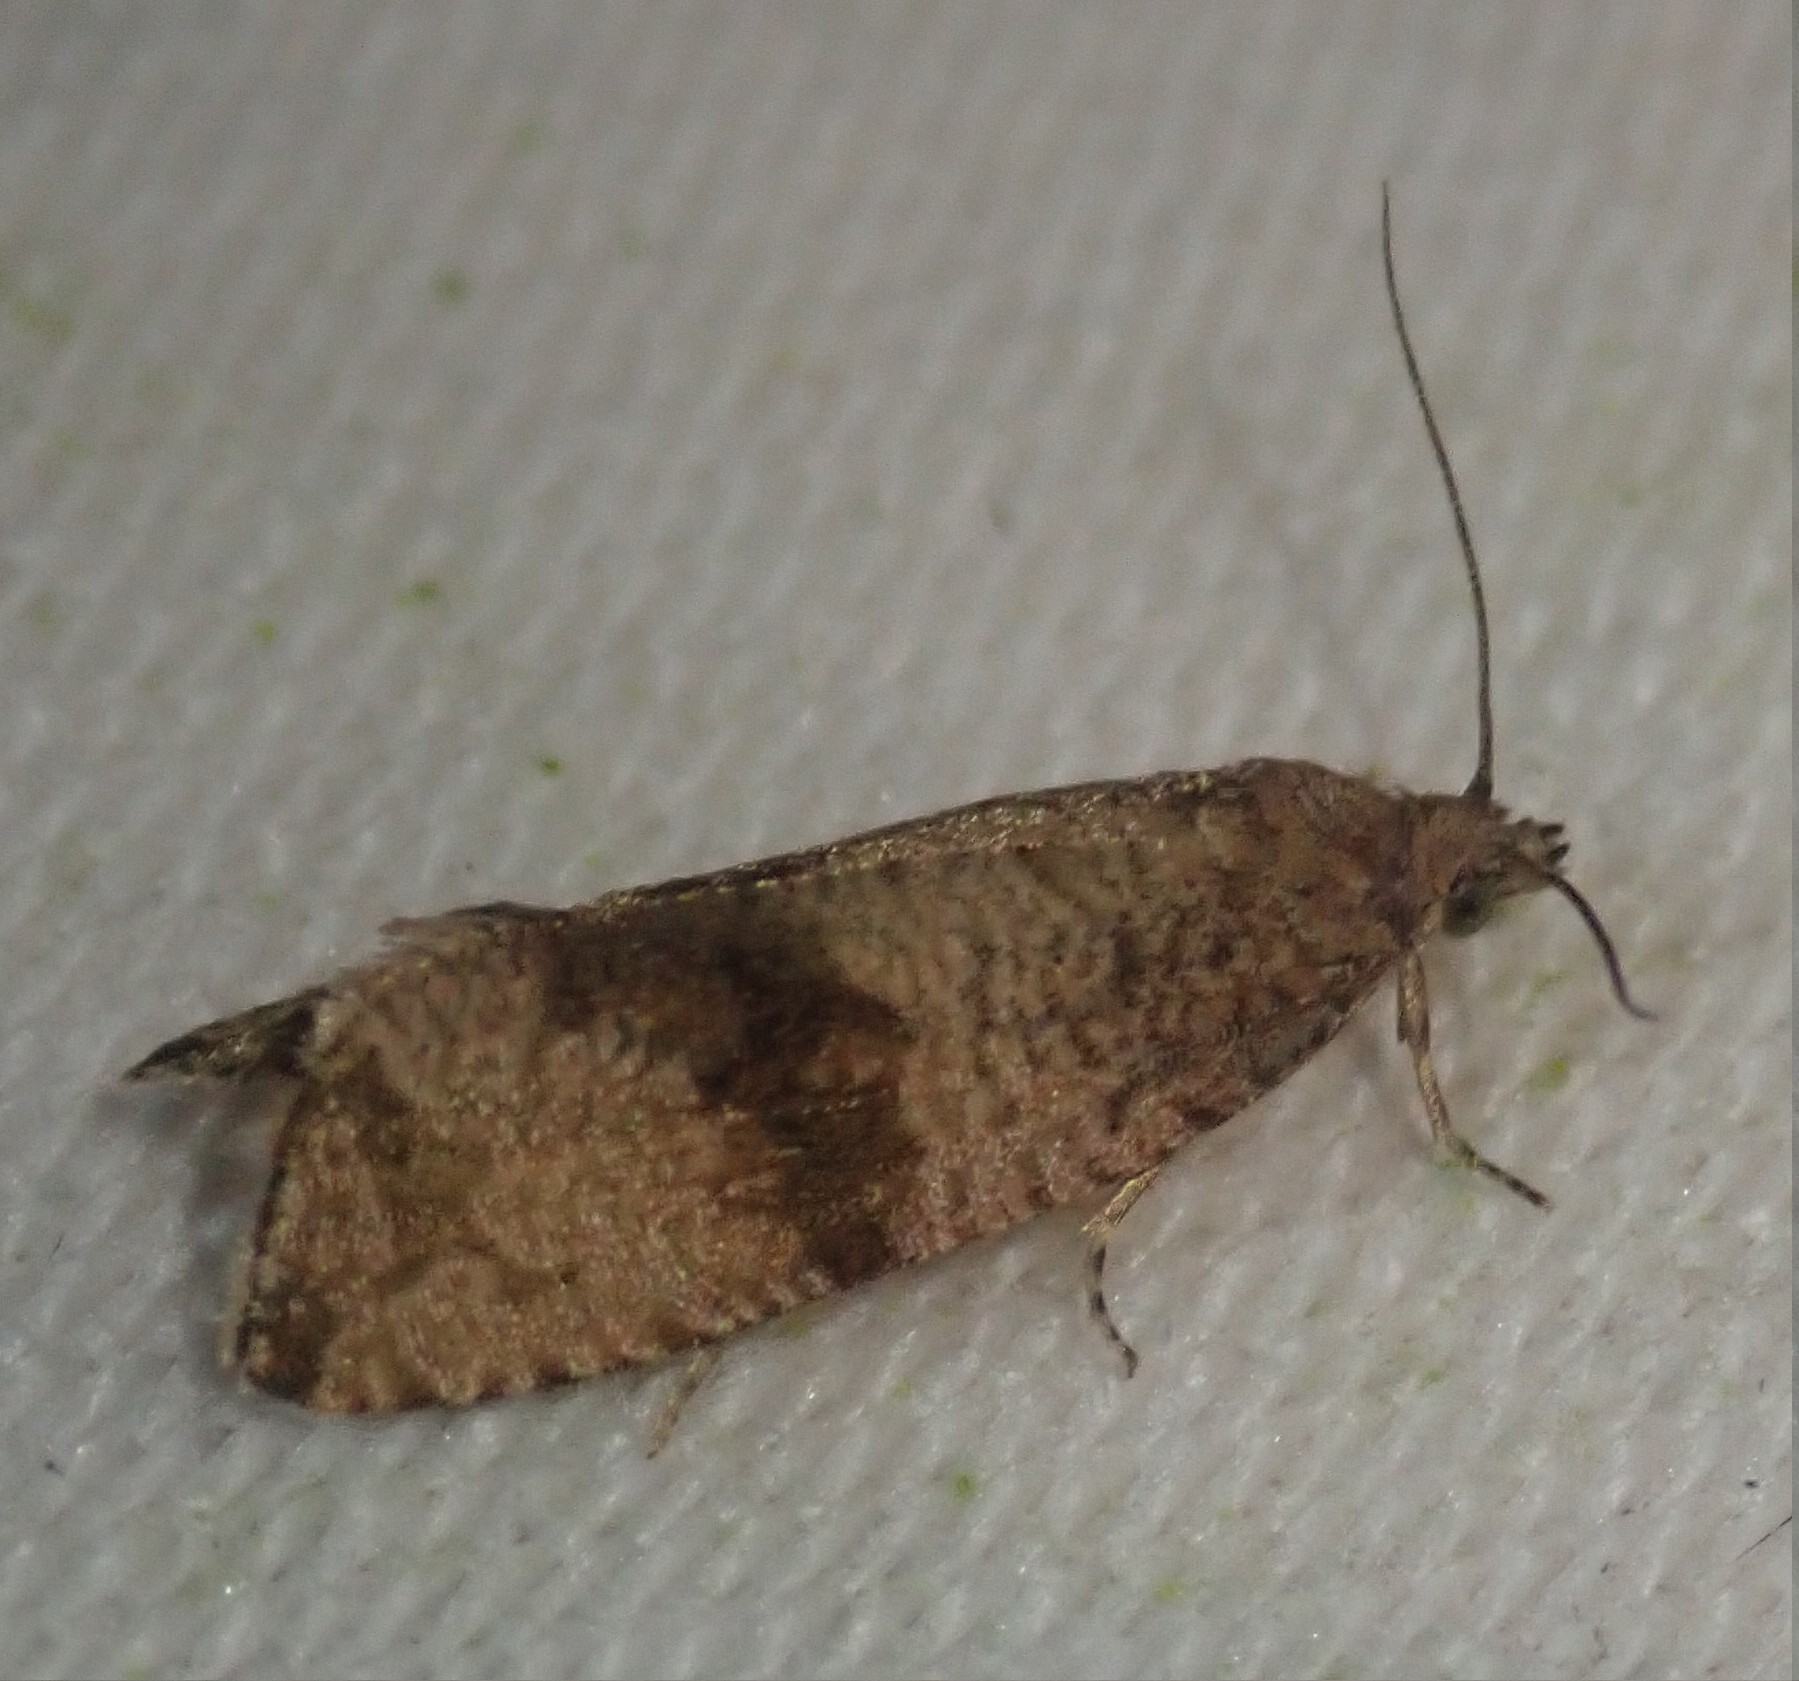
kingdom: Animalia
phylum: Arthropoda
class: Insecta
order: Lepidoptera
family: Tortricidae
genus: Celypha
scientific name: Celypha striana
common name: Barred marble
